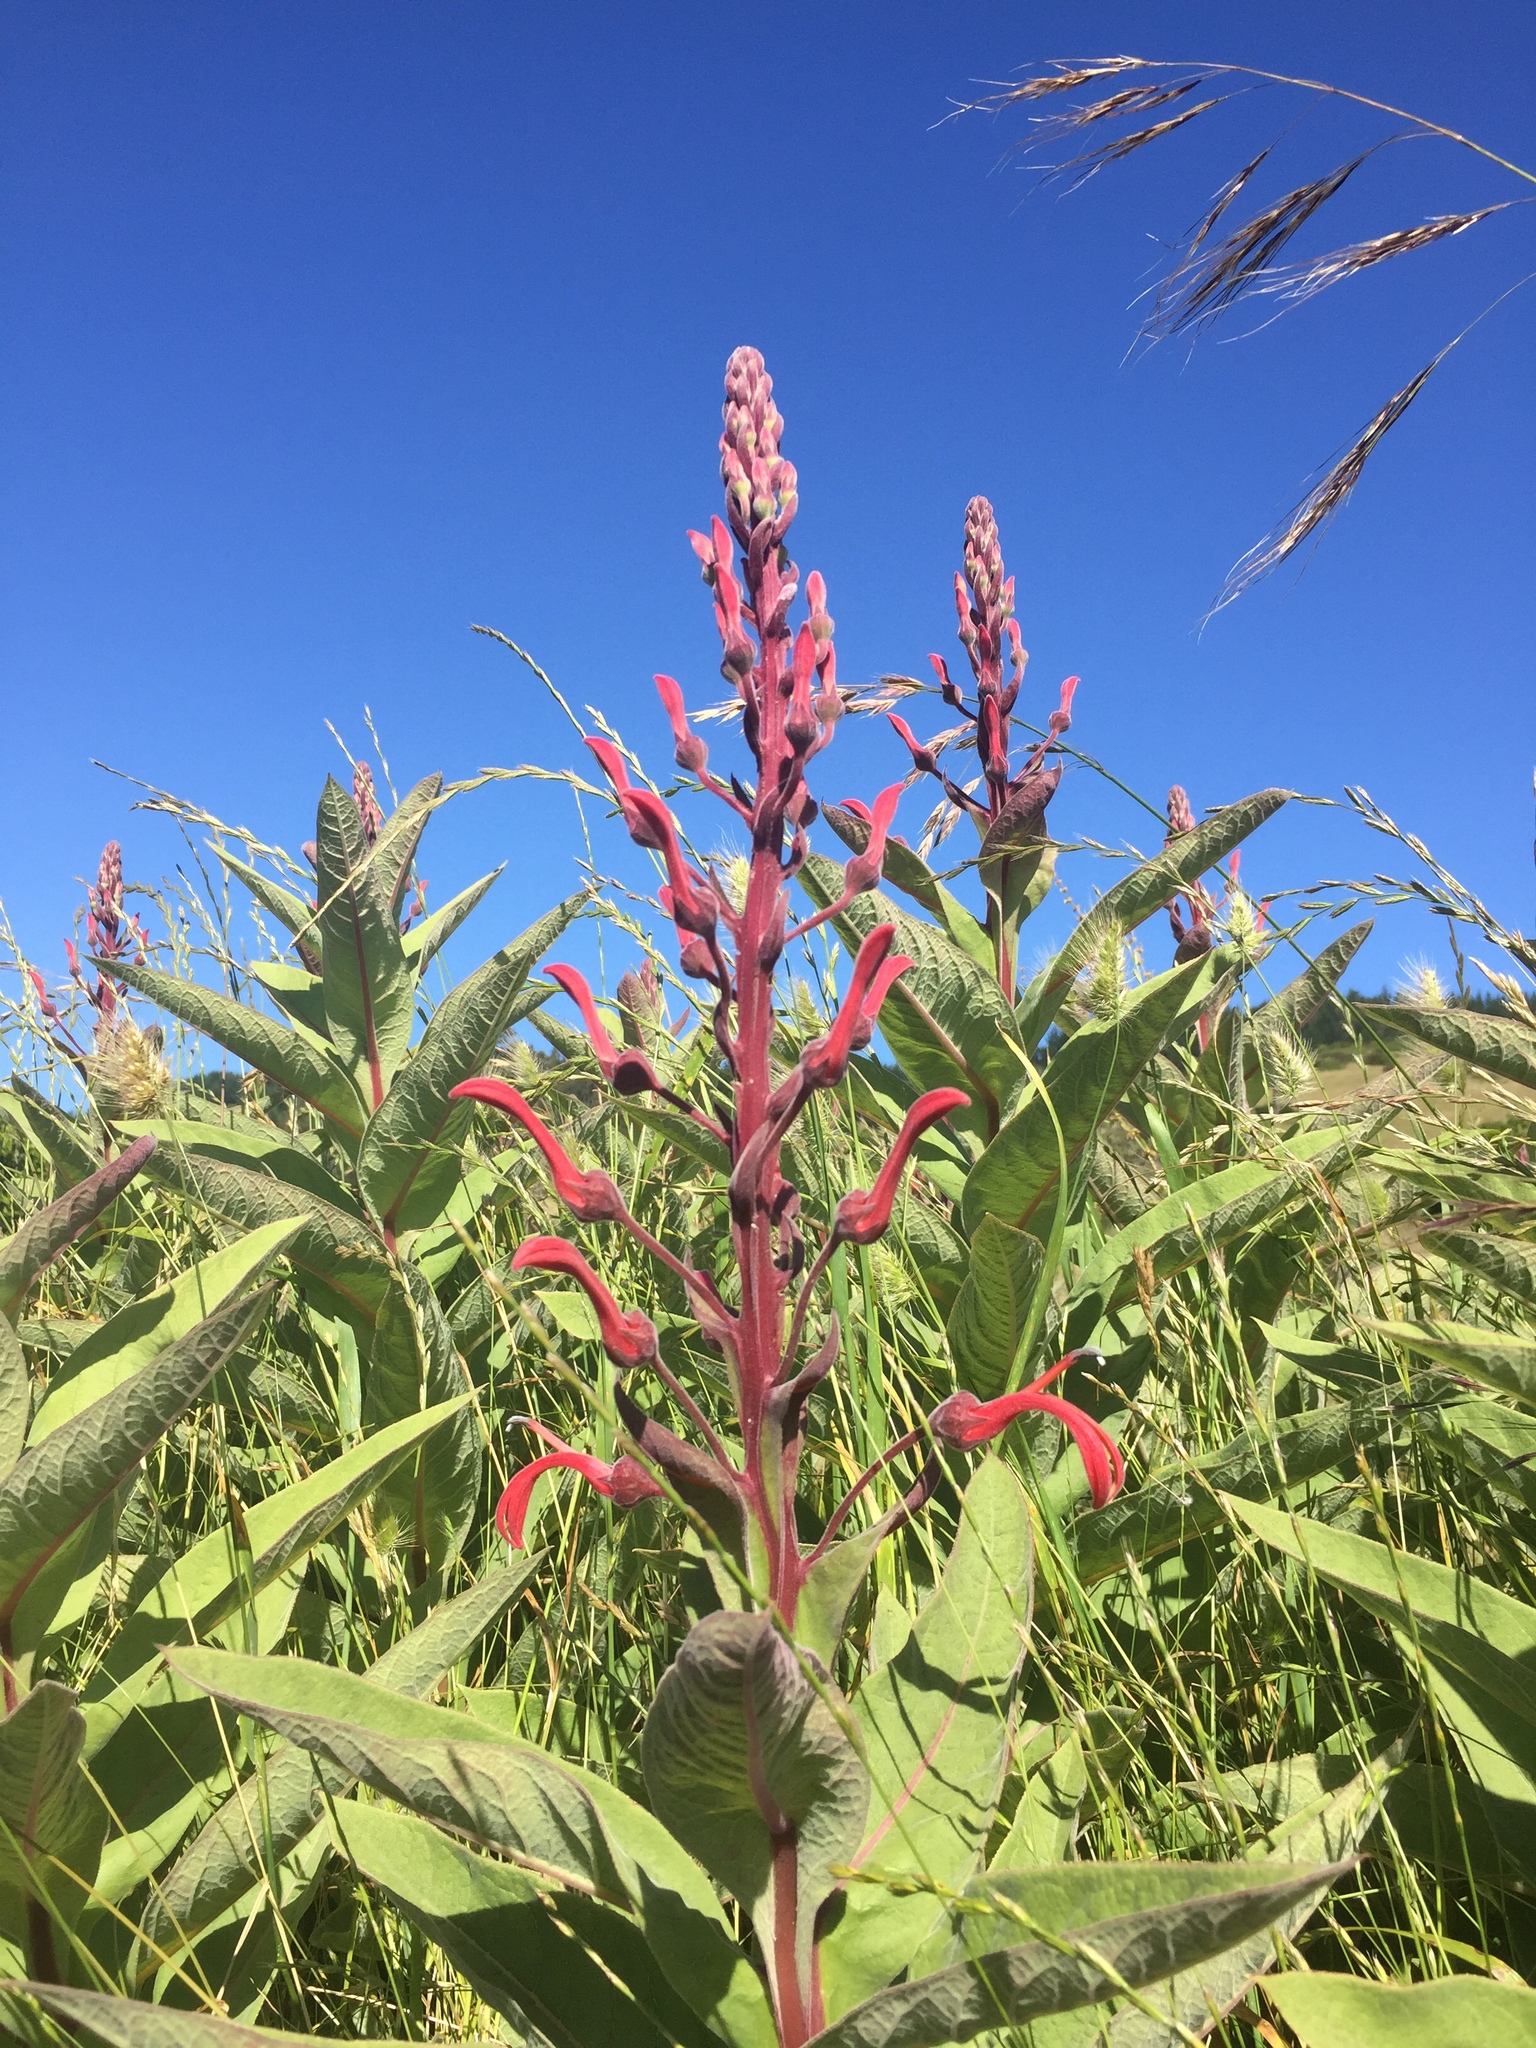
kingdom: Plantae
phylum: Tracheophyta
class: Magnoliopsida
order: Asterales
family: Campanulaceae
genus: Lobelia
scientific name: Lobelia tupa
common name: Devil's-tobacco
